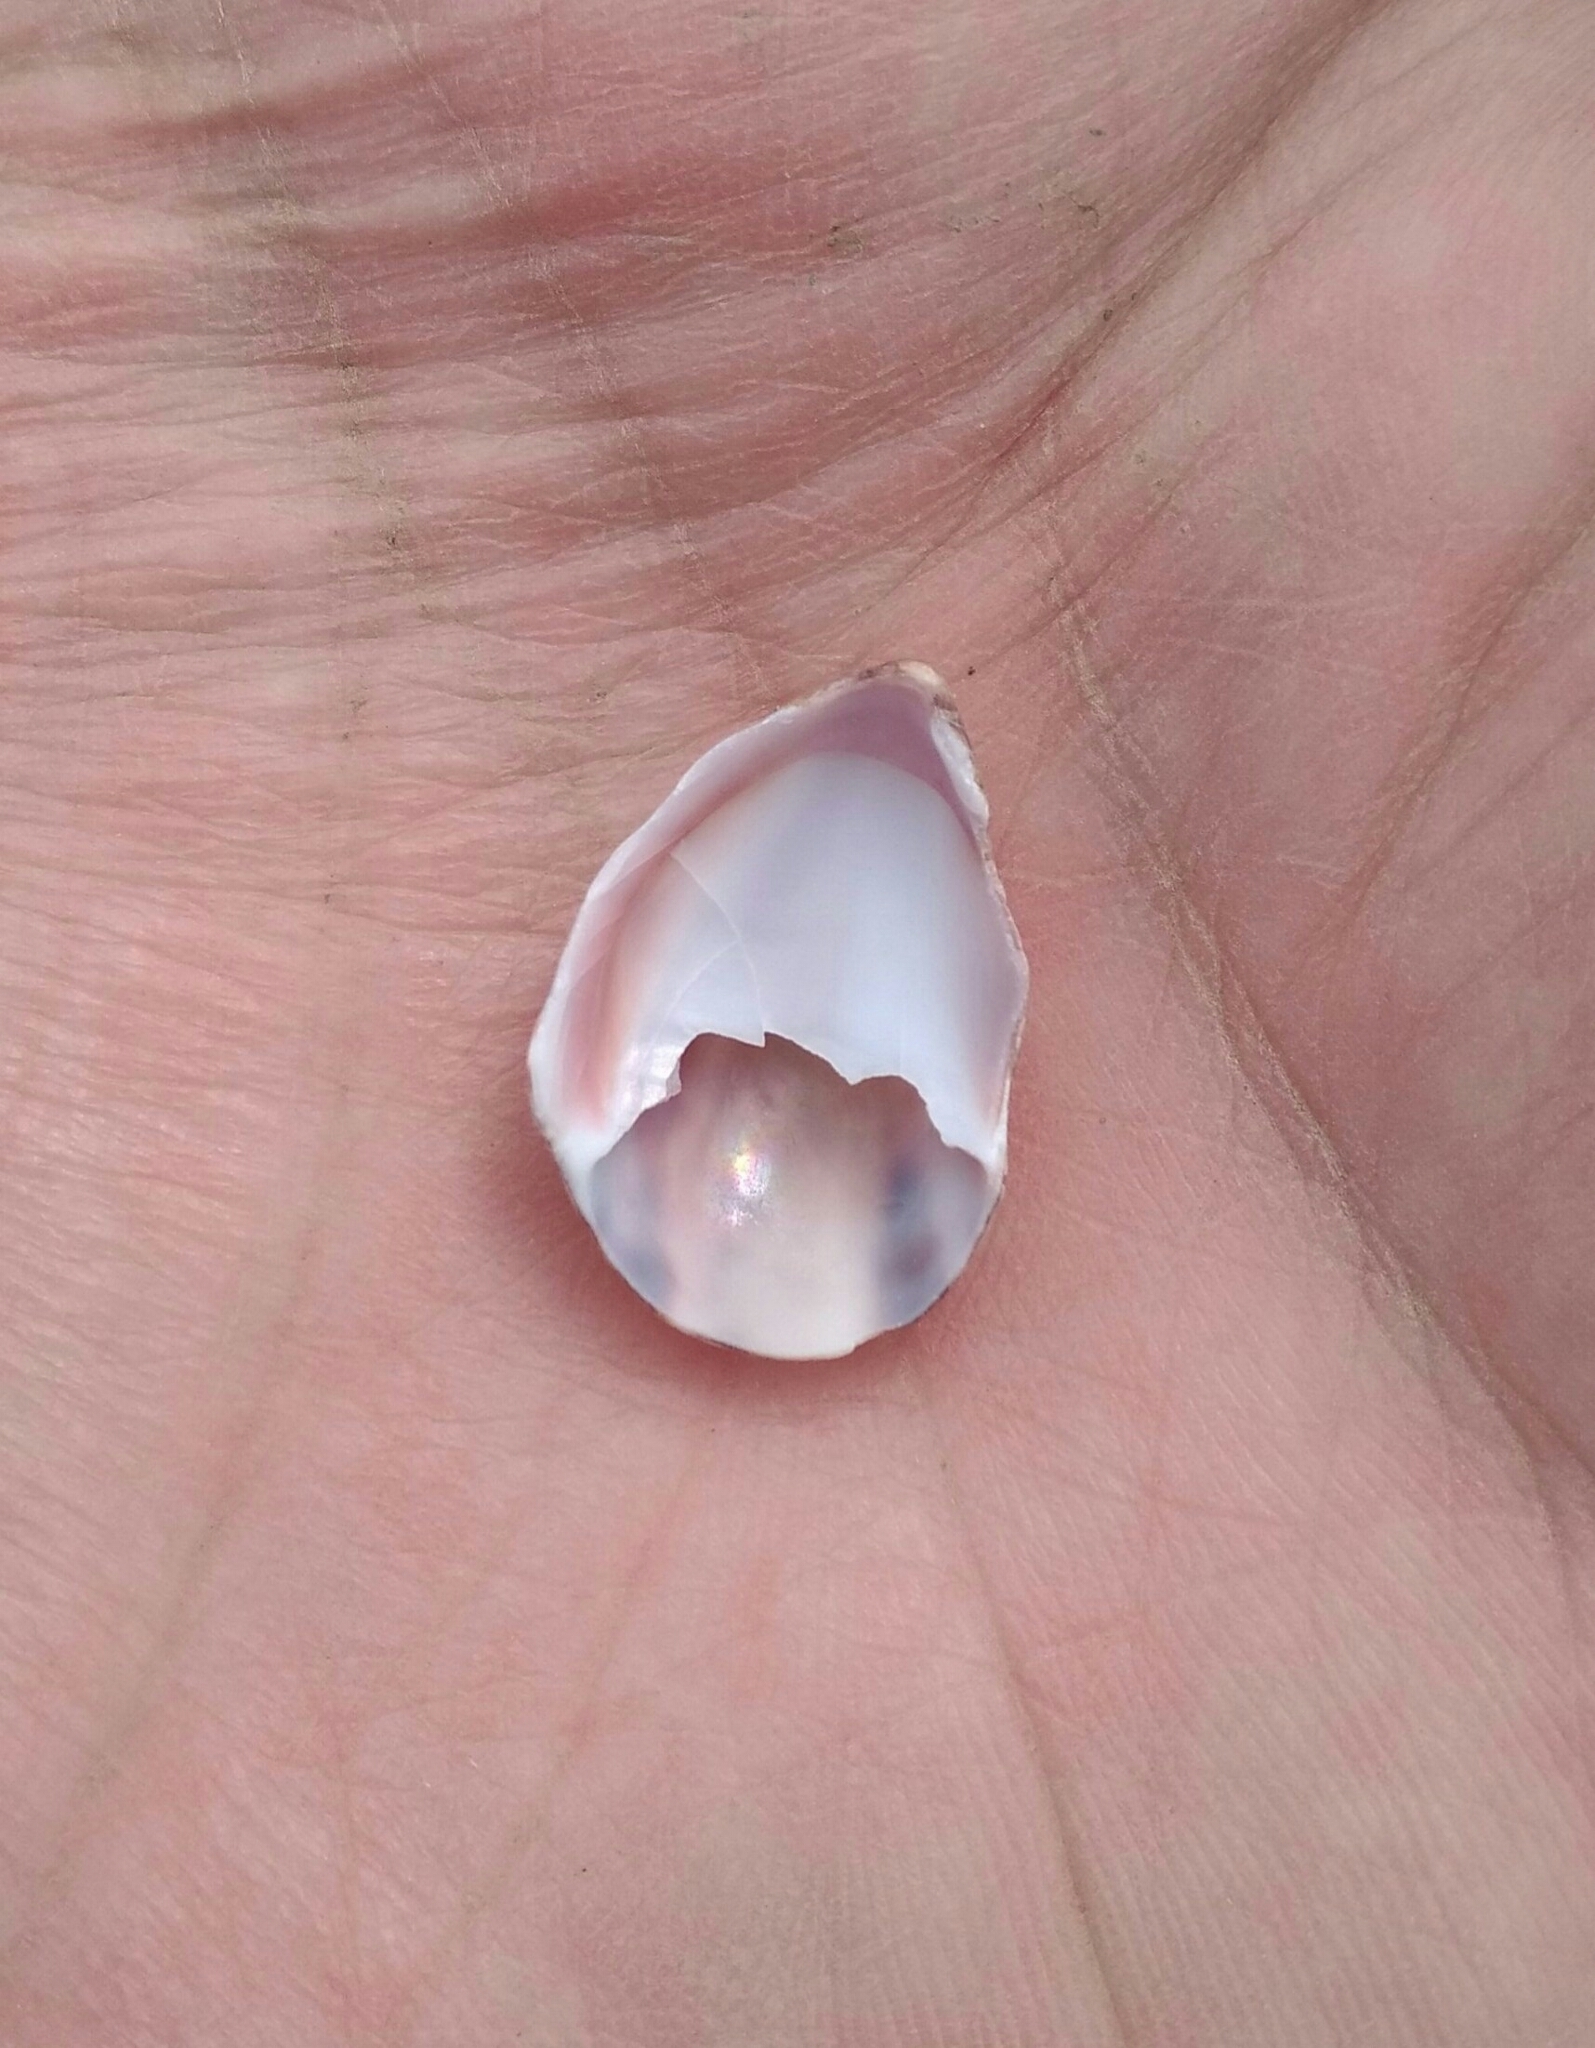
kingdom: Animalia
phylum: Mollusca
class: Gastropoda
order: Littorinimorpha
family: Calyptraeidae
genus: Crepidula
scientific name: Crepidula fornicata
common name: Slipper limpet
